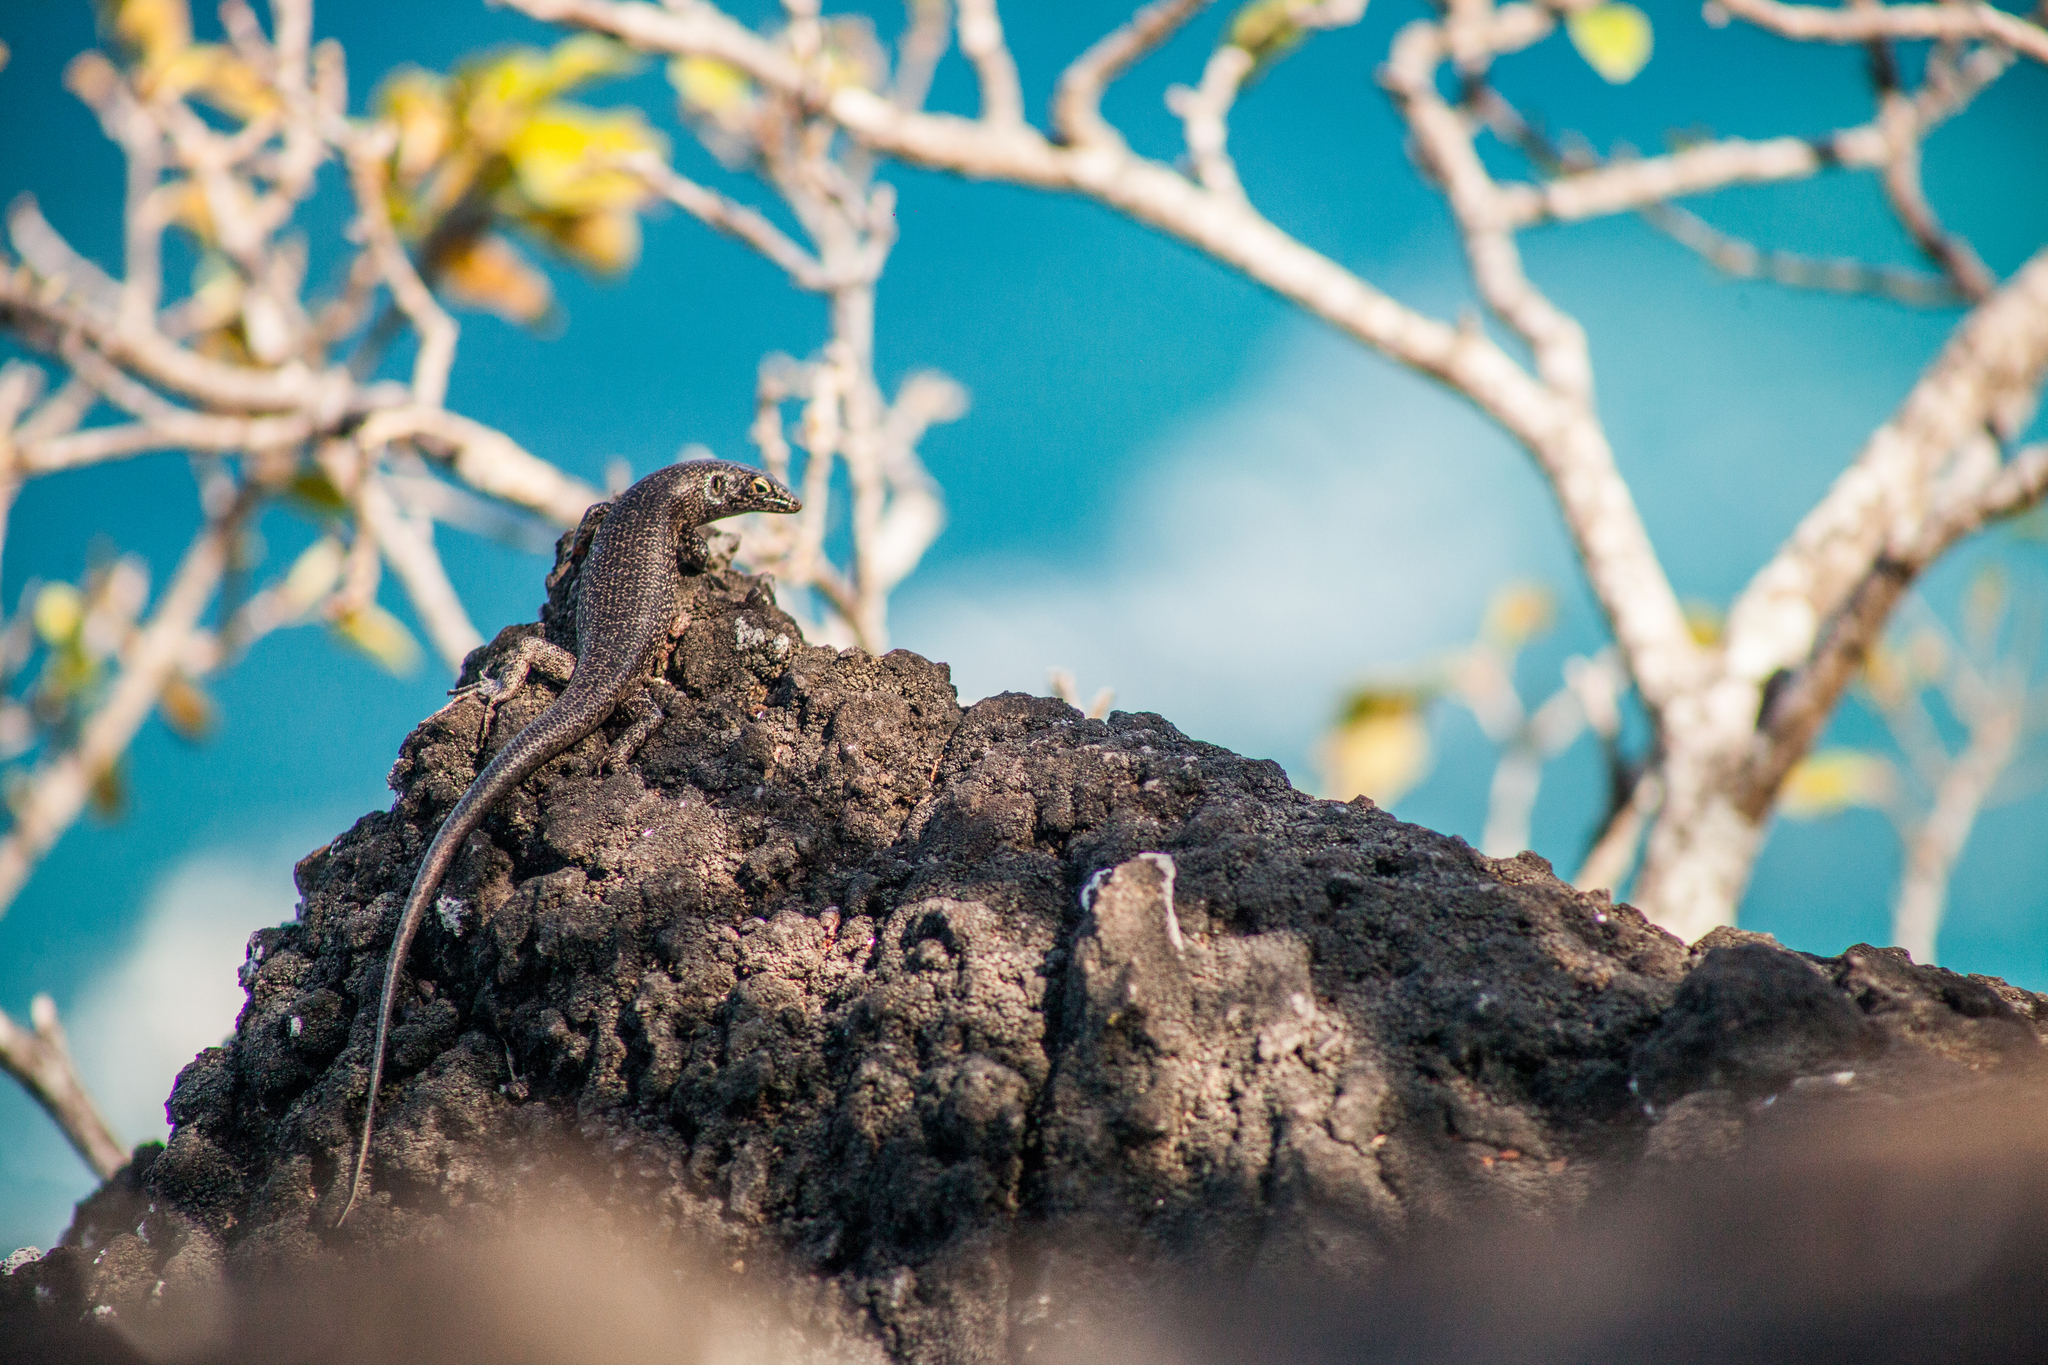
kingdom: Animalia
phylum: Chordata
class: Squamata
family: Scincidae
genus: Trachylepis
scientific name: Trachylepis atlantica
